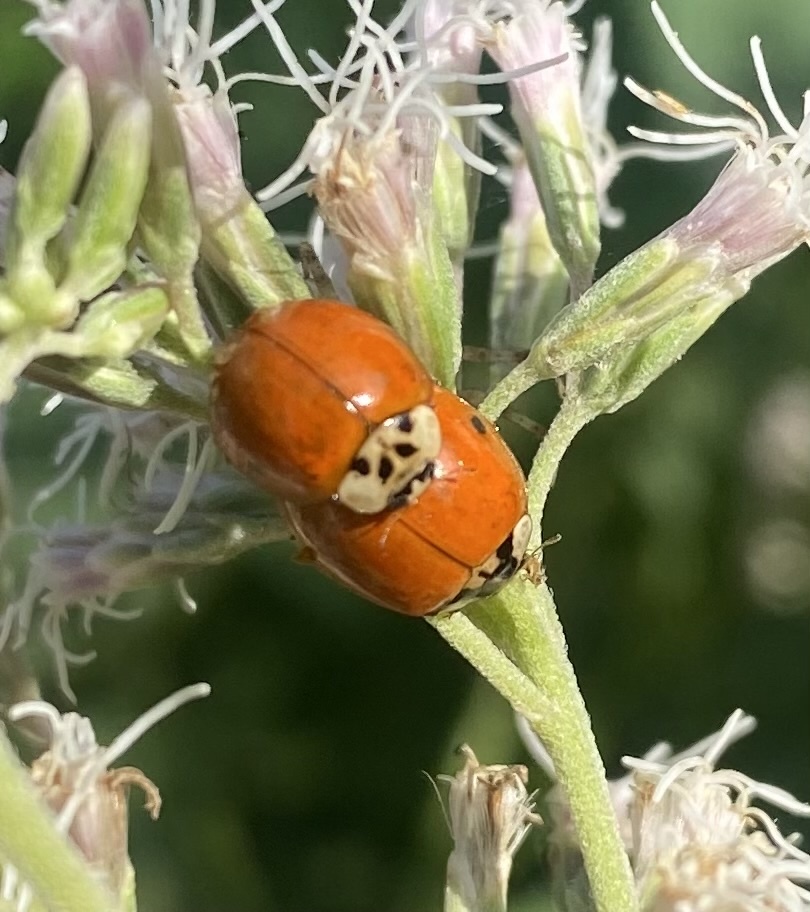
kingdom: Animalia
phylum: Arthropoda
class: Insecta
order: Coleoptera
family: Coccinellidae
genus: Harmonia
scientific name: Harmonia axyridis
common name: Harlequin ladybird
